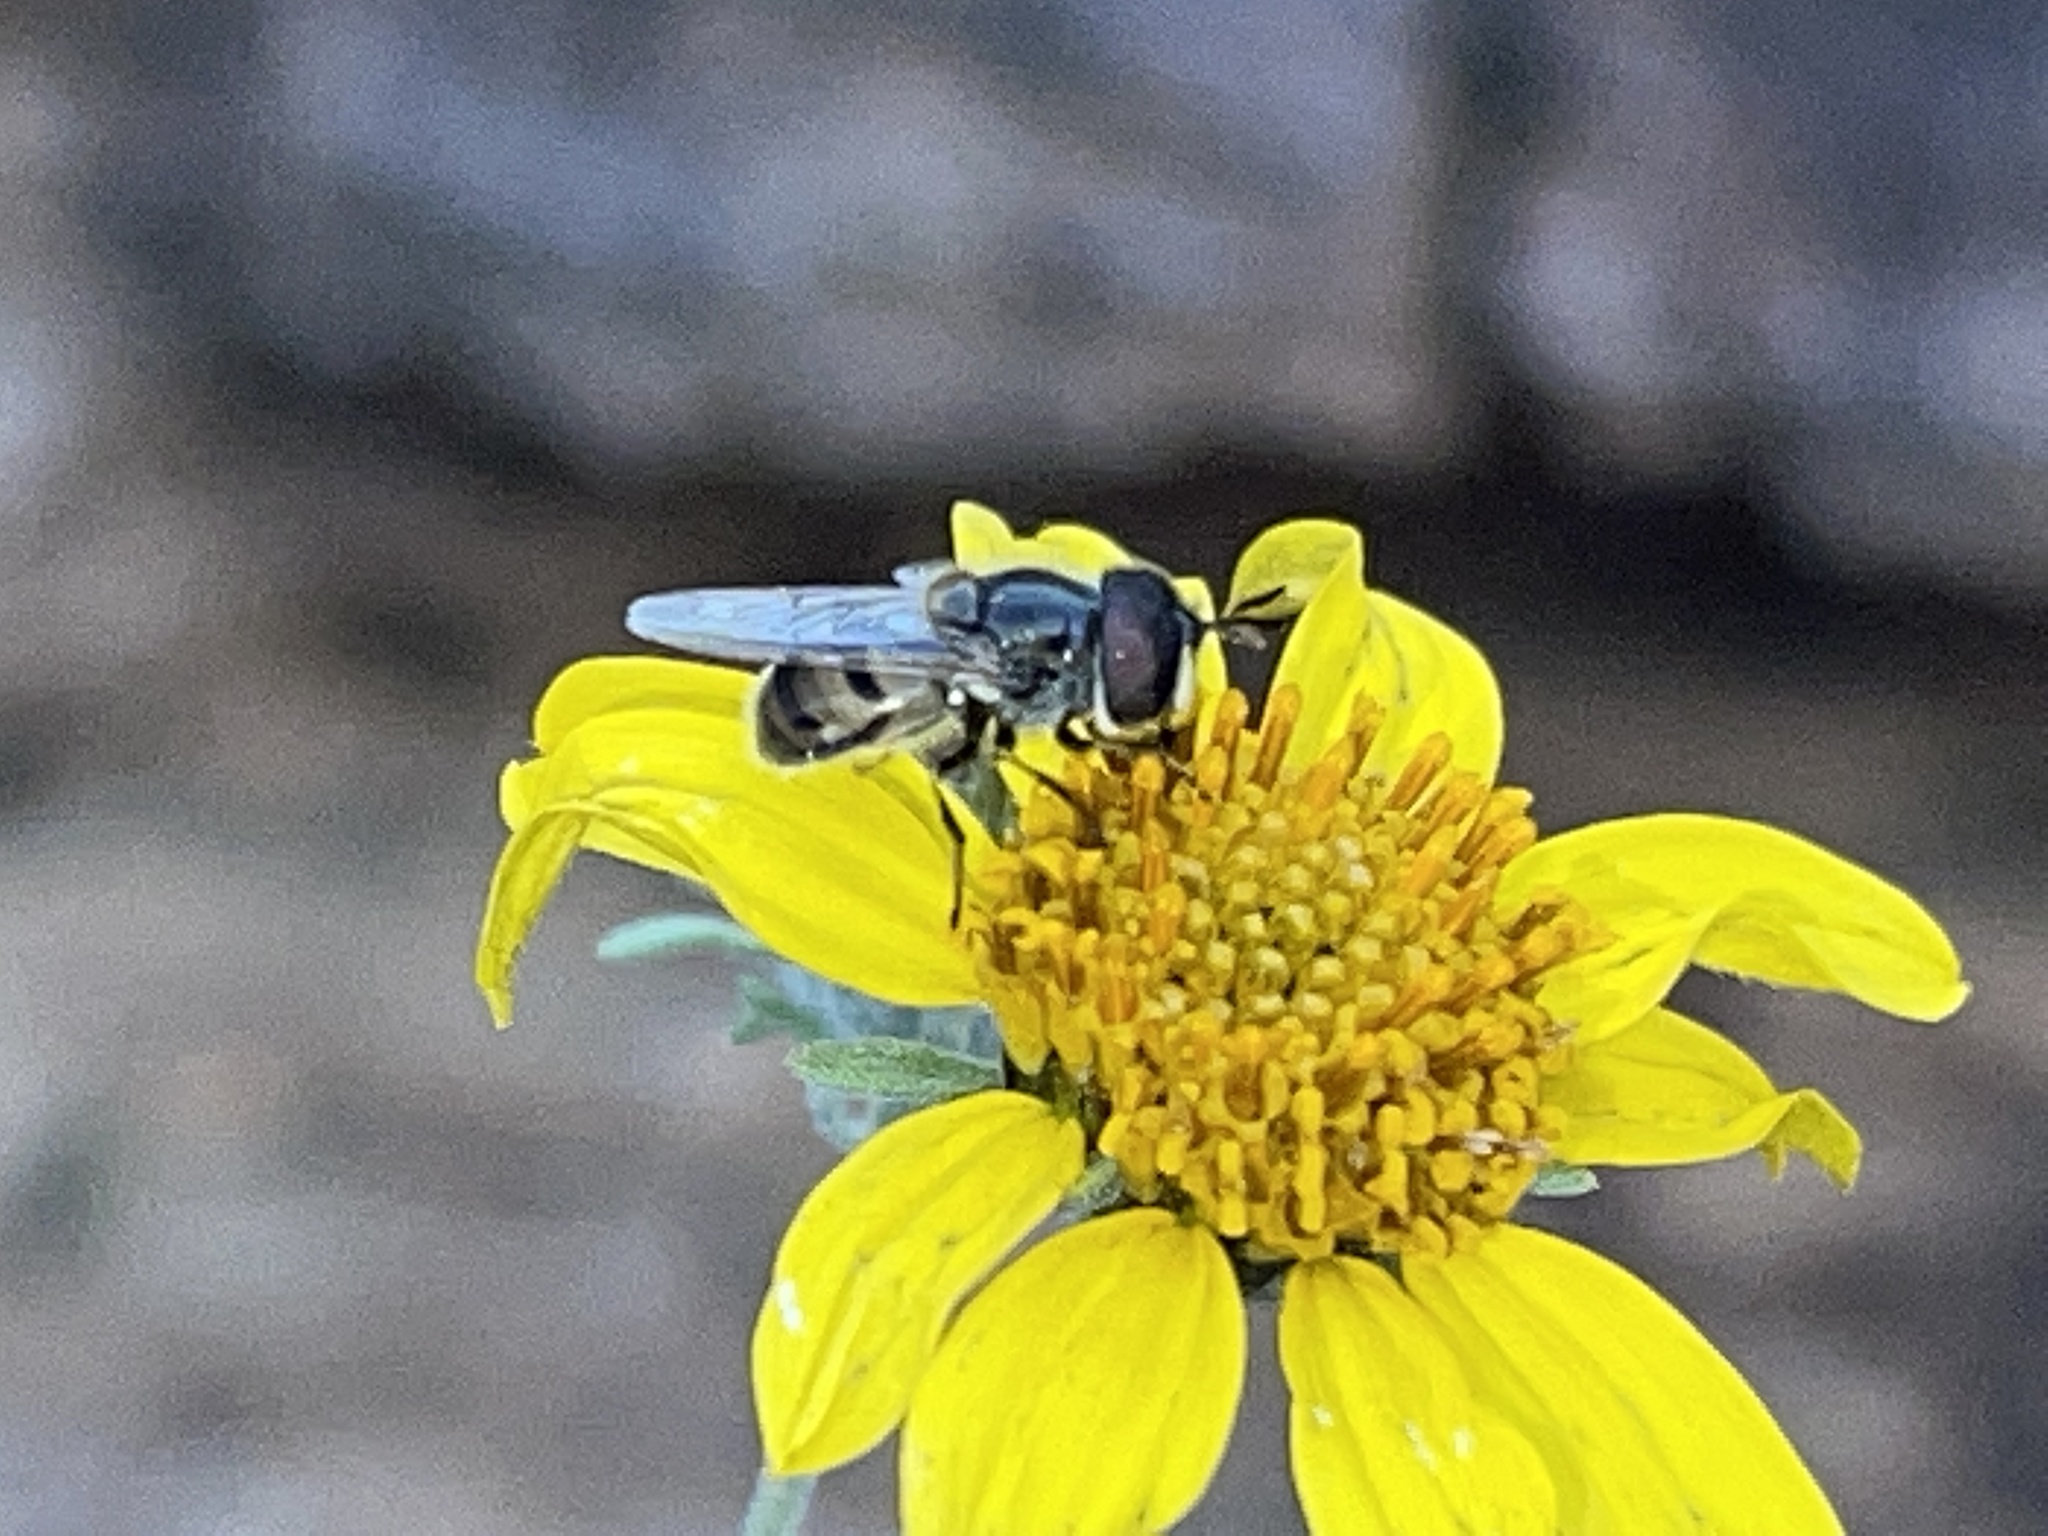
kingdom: Animalia
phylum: Arthropoda
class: Insecta
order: Diptera
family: Syrphidae
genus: Copestylum
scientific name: Copestylum marginatum
